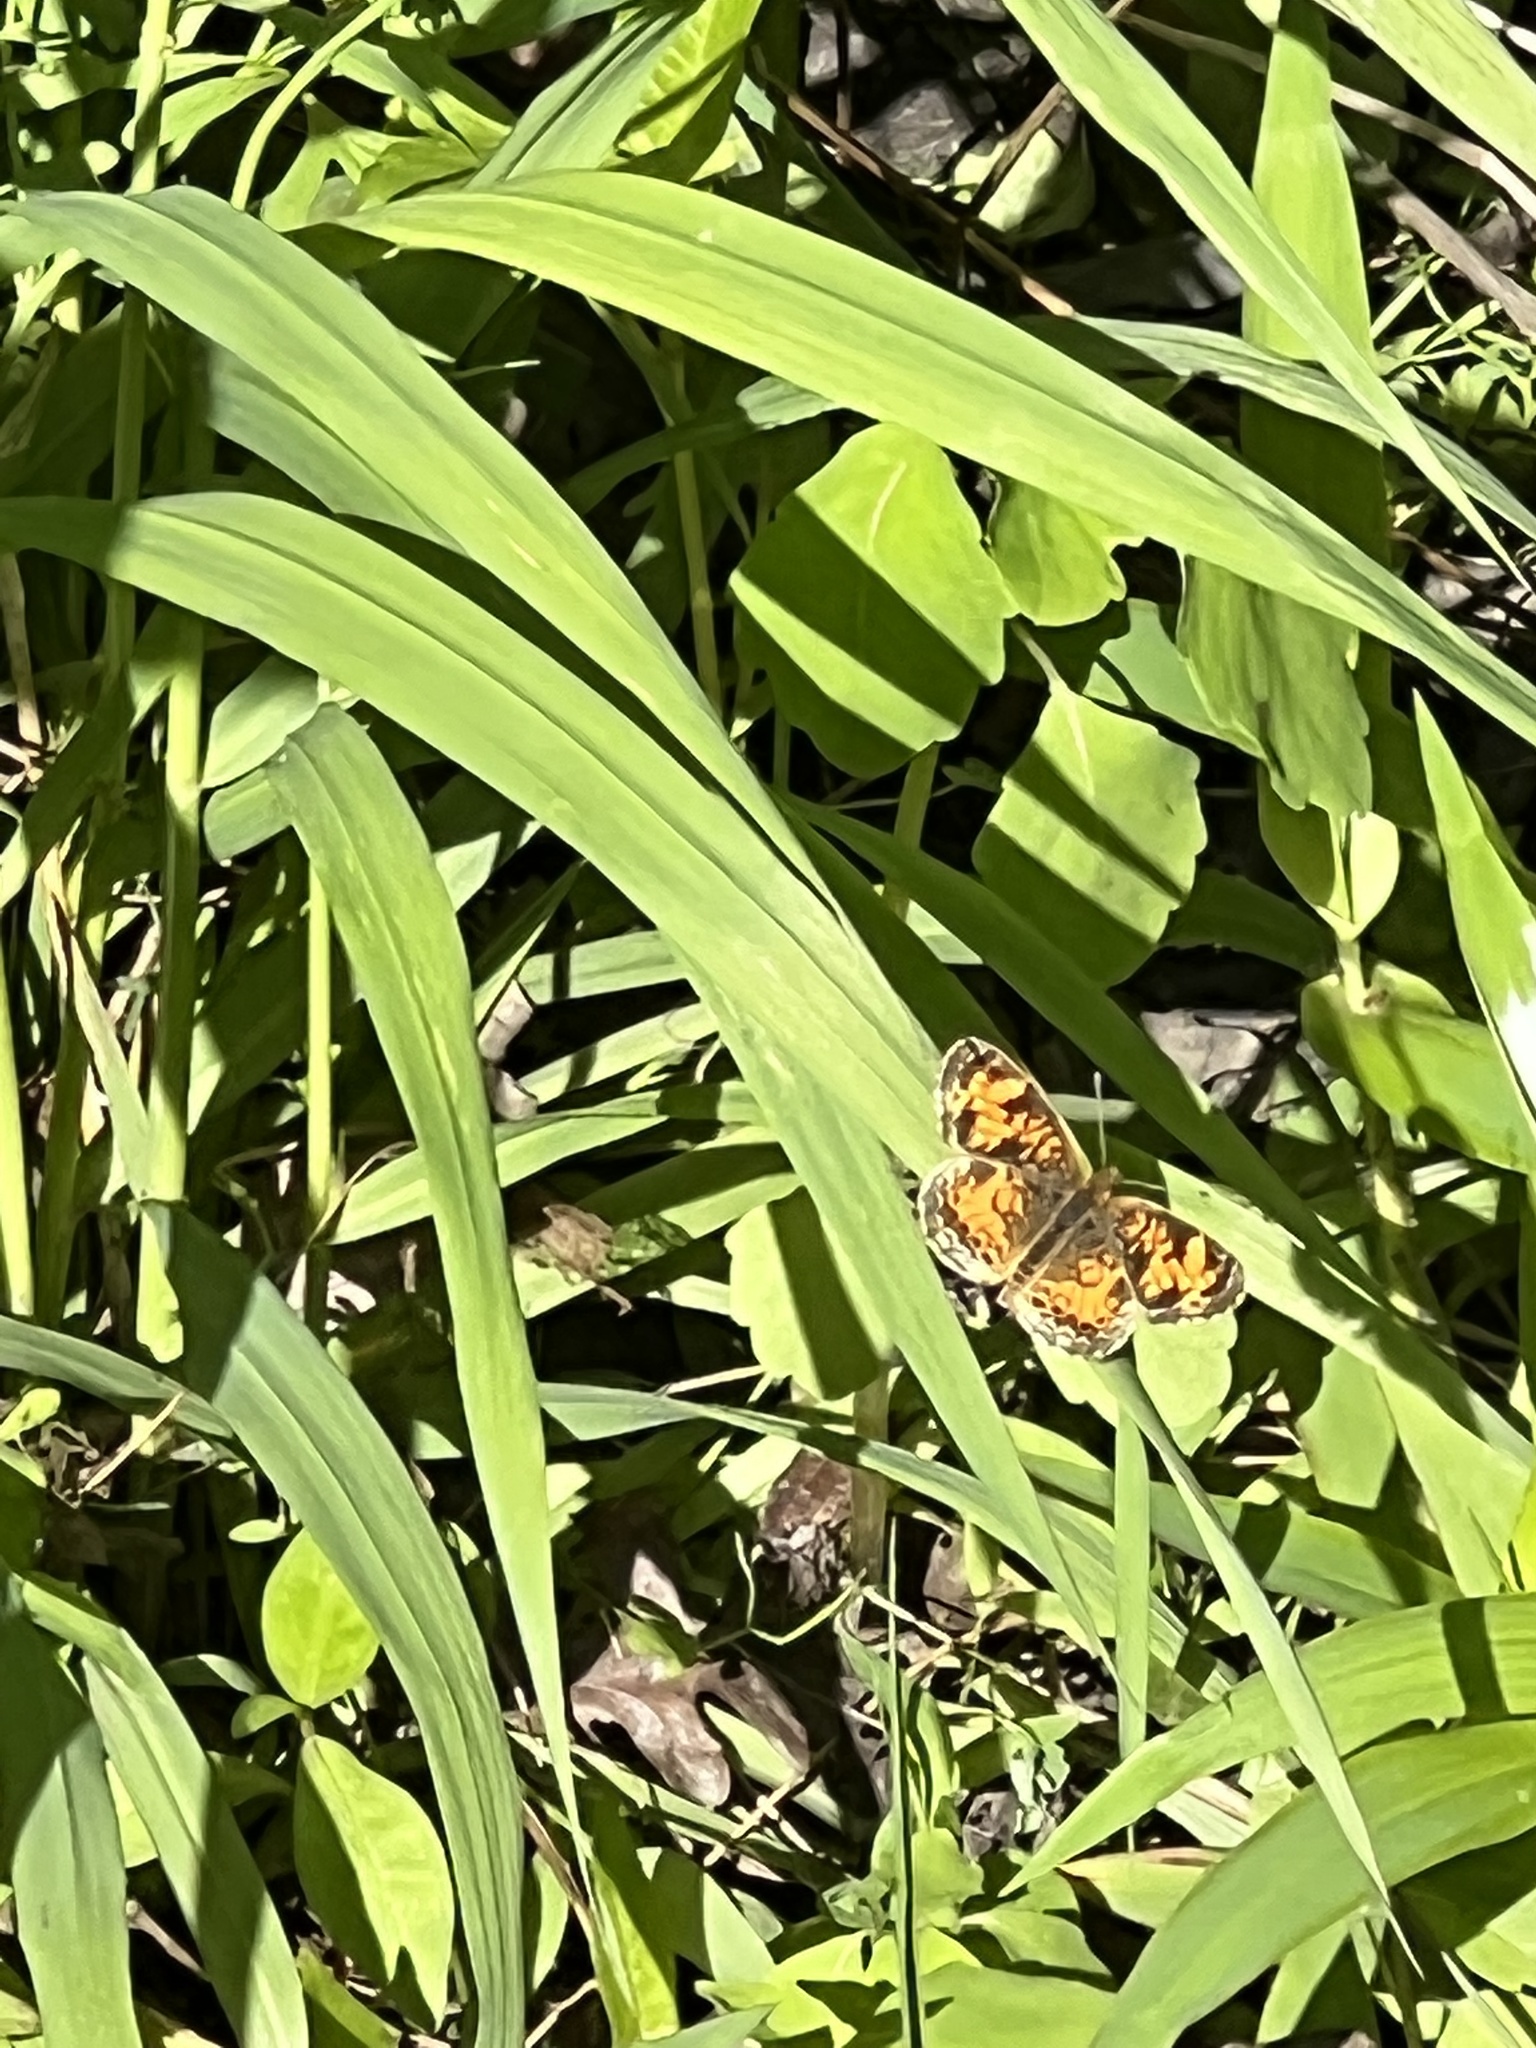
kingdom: Animalia
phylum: Arthropoda
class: Insecta
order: Lepidoptera
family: Nymphalidae
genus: Phyciodes
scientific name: Phyciodes tharos
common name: Pearl crescent
